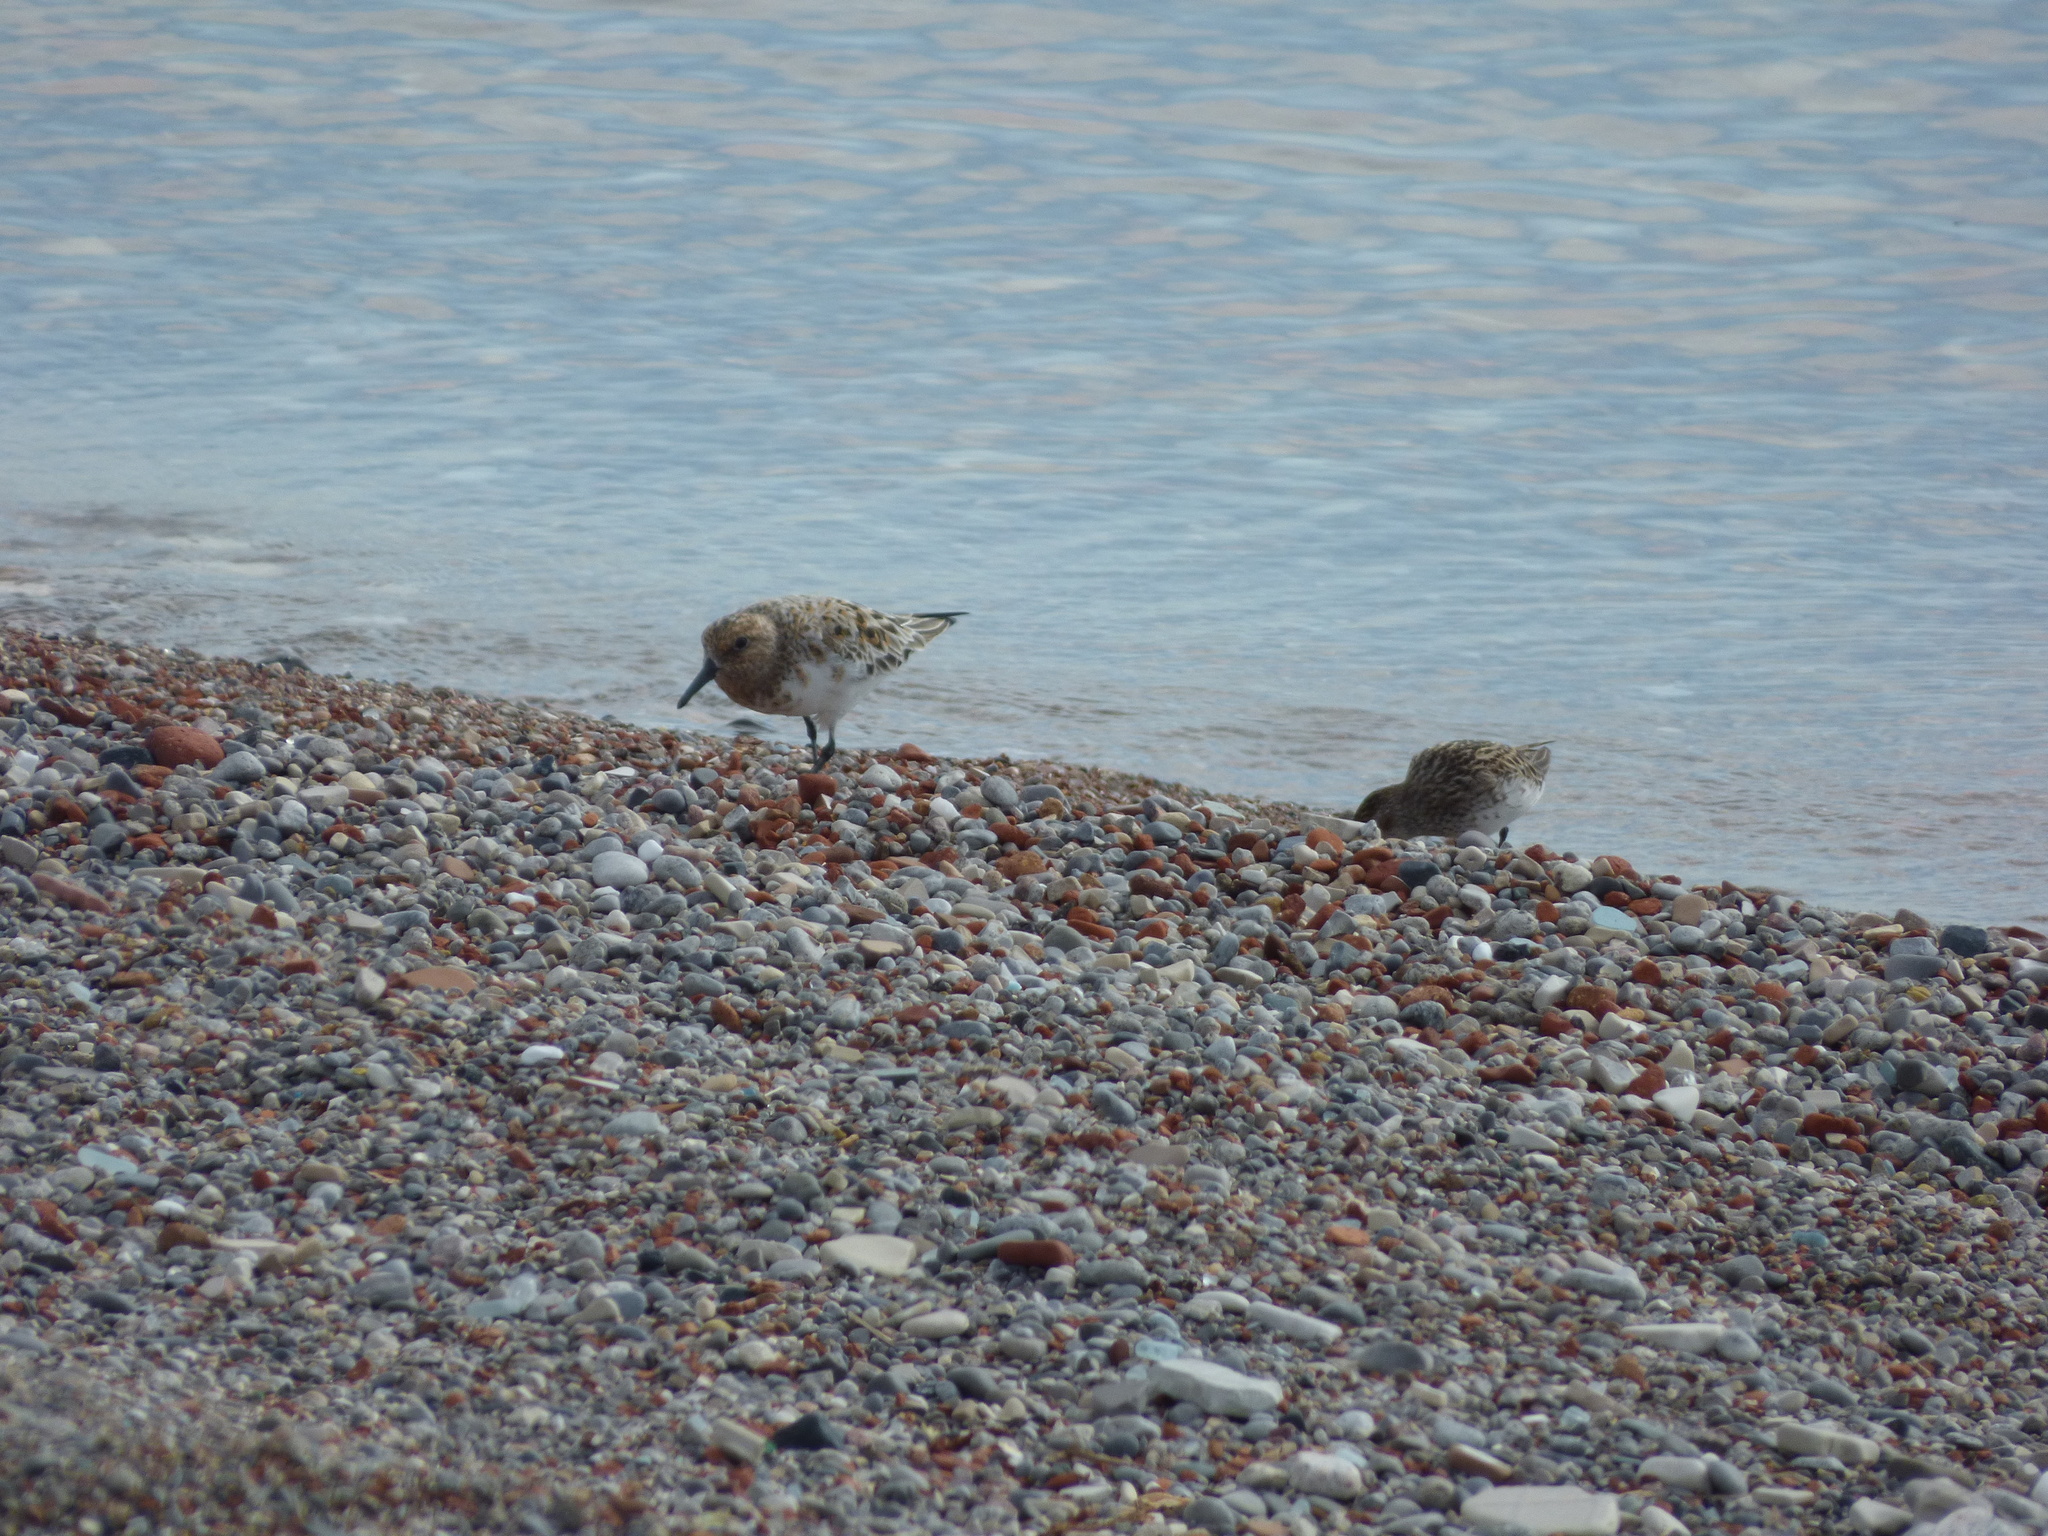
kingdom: Animalia
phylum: Chordata
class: Aves
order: Charadriiformes
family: Scolopacidae
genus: Calidris
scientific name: Calidris pusilla
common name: Semipalmated sandpiper
